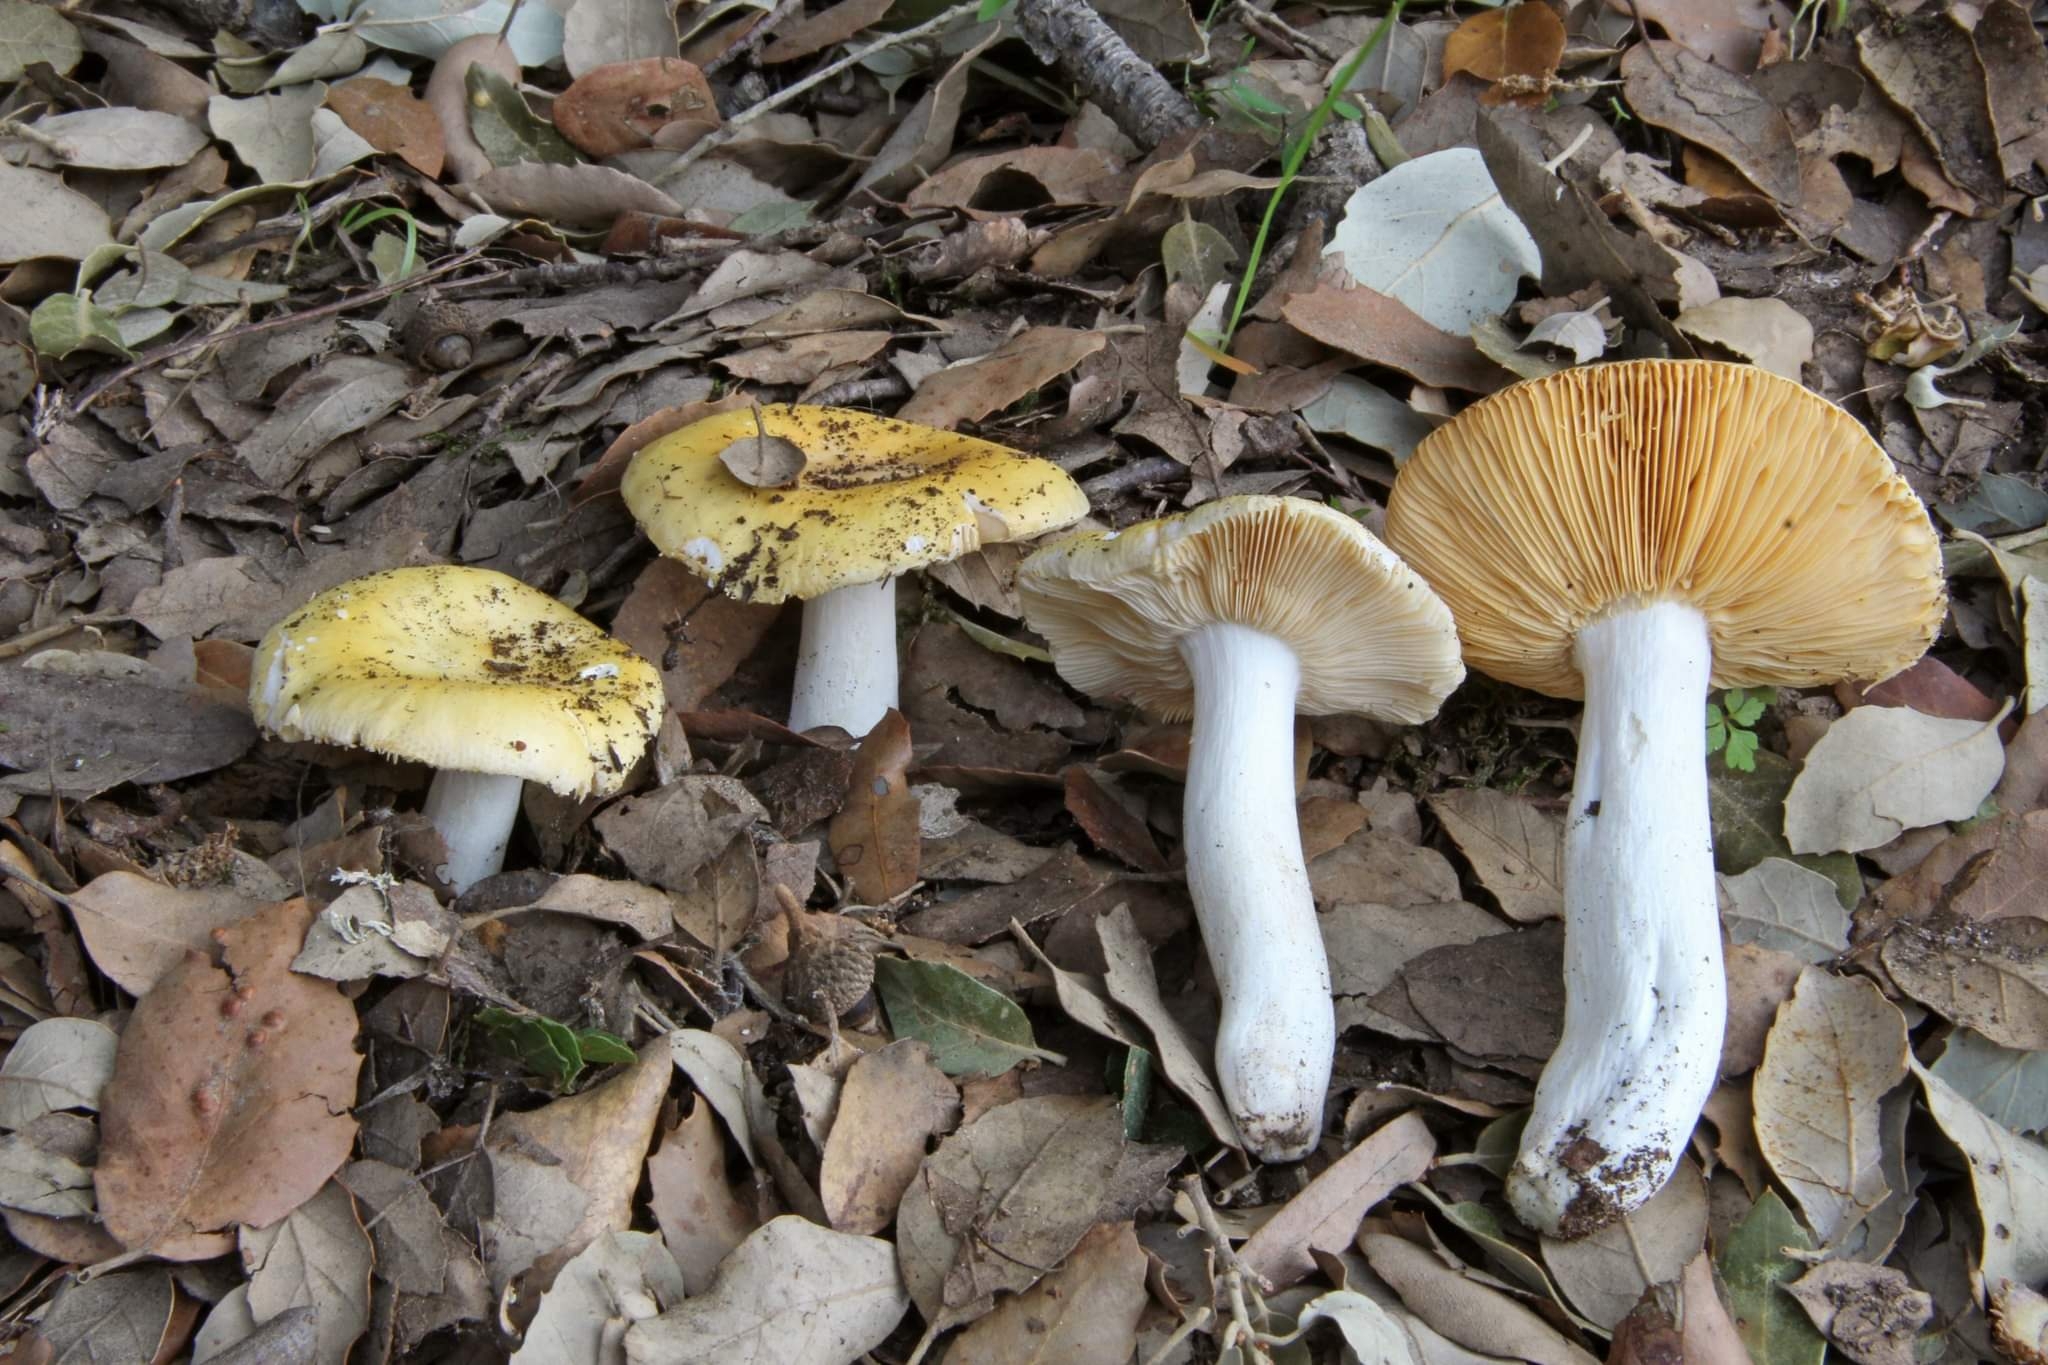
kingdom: Fungi
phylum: Basidiomycota
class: Agaricomycetes
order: Russulales
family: Russulaceae
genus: Russula
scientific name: Russula helios
